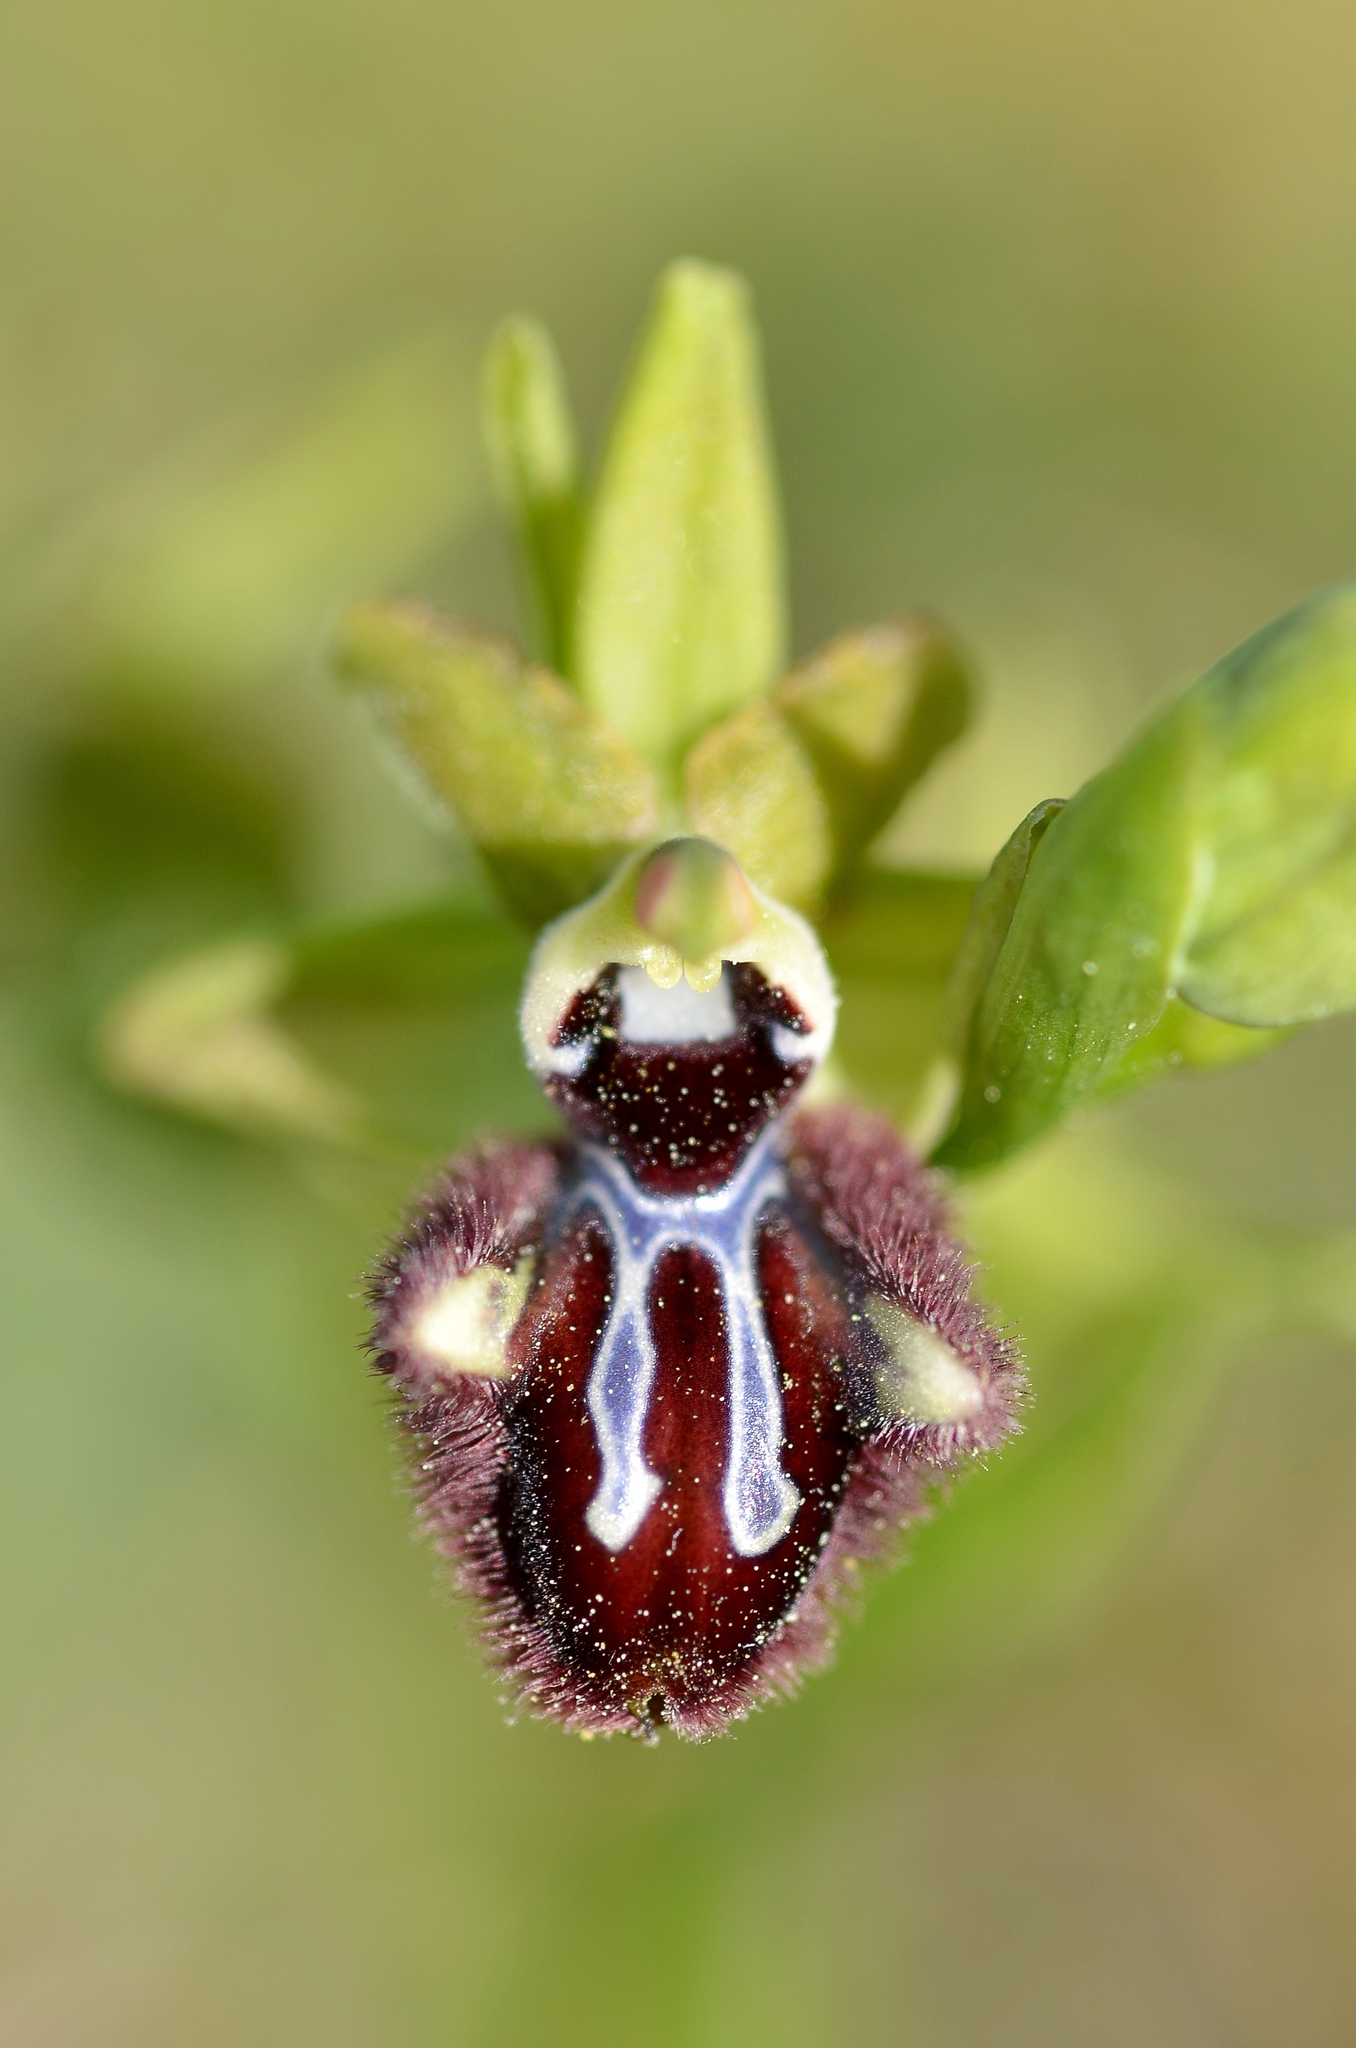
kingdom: Plantae
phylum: Tracheophyta
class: Liliopsida
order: Asparagales
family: Orchidaceae
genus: Ophrys
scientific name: Ophrys sphegodes
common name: Early spider-orchid
